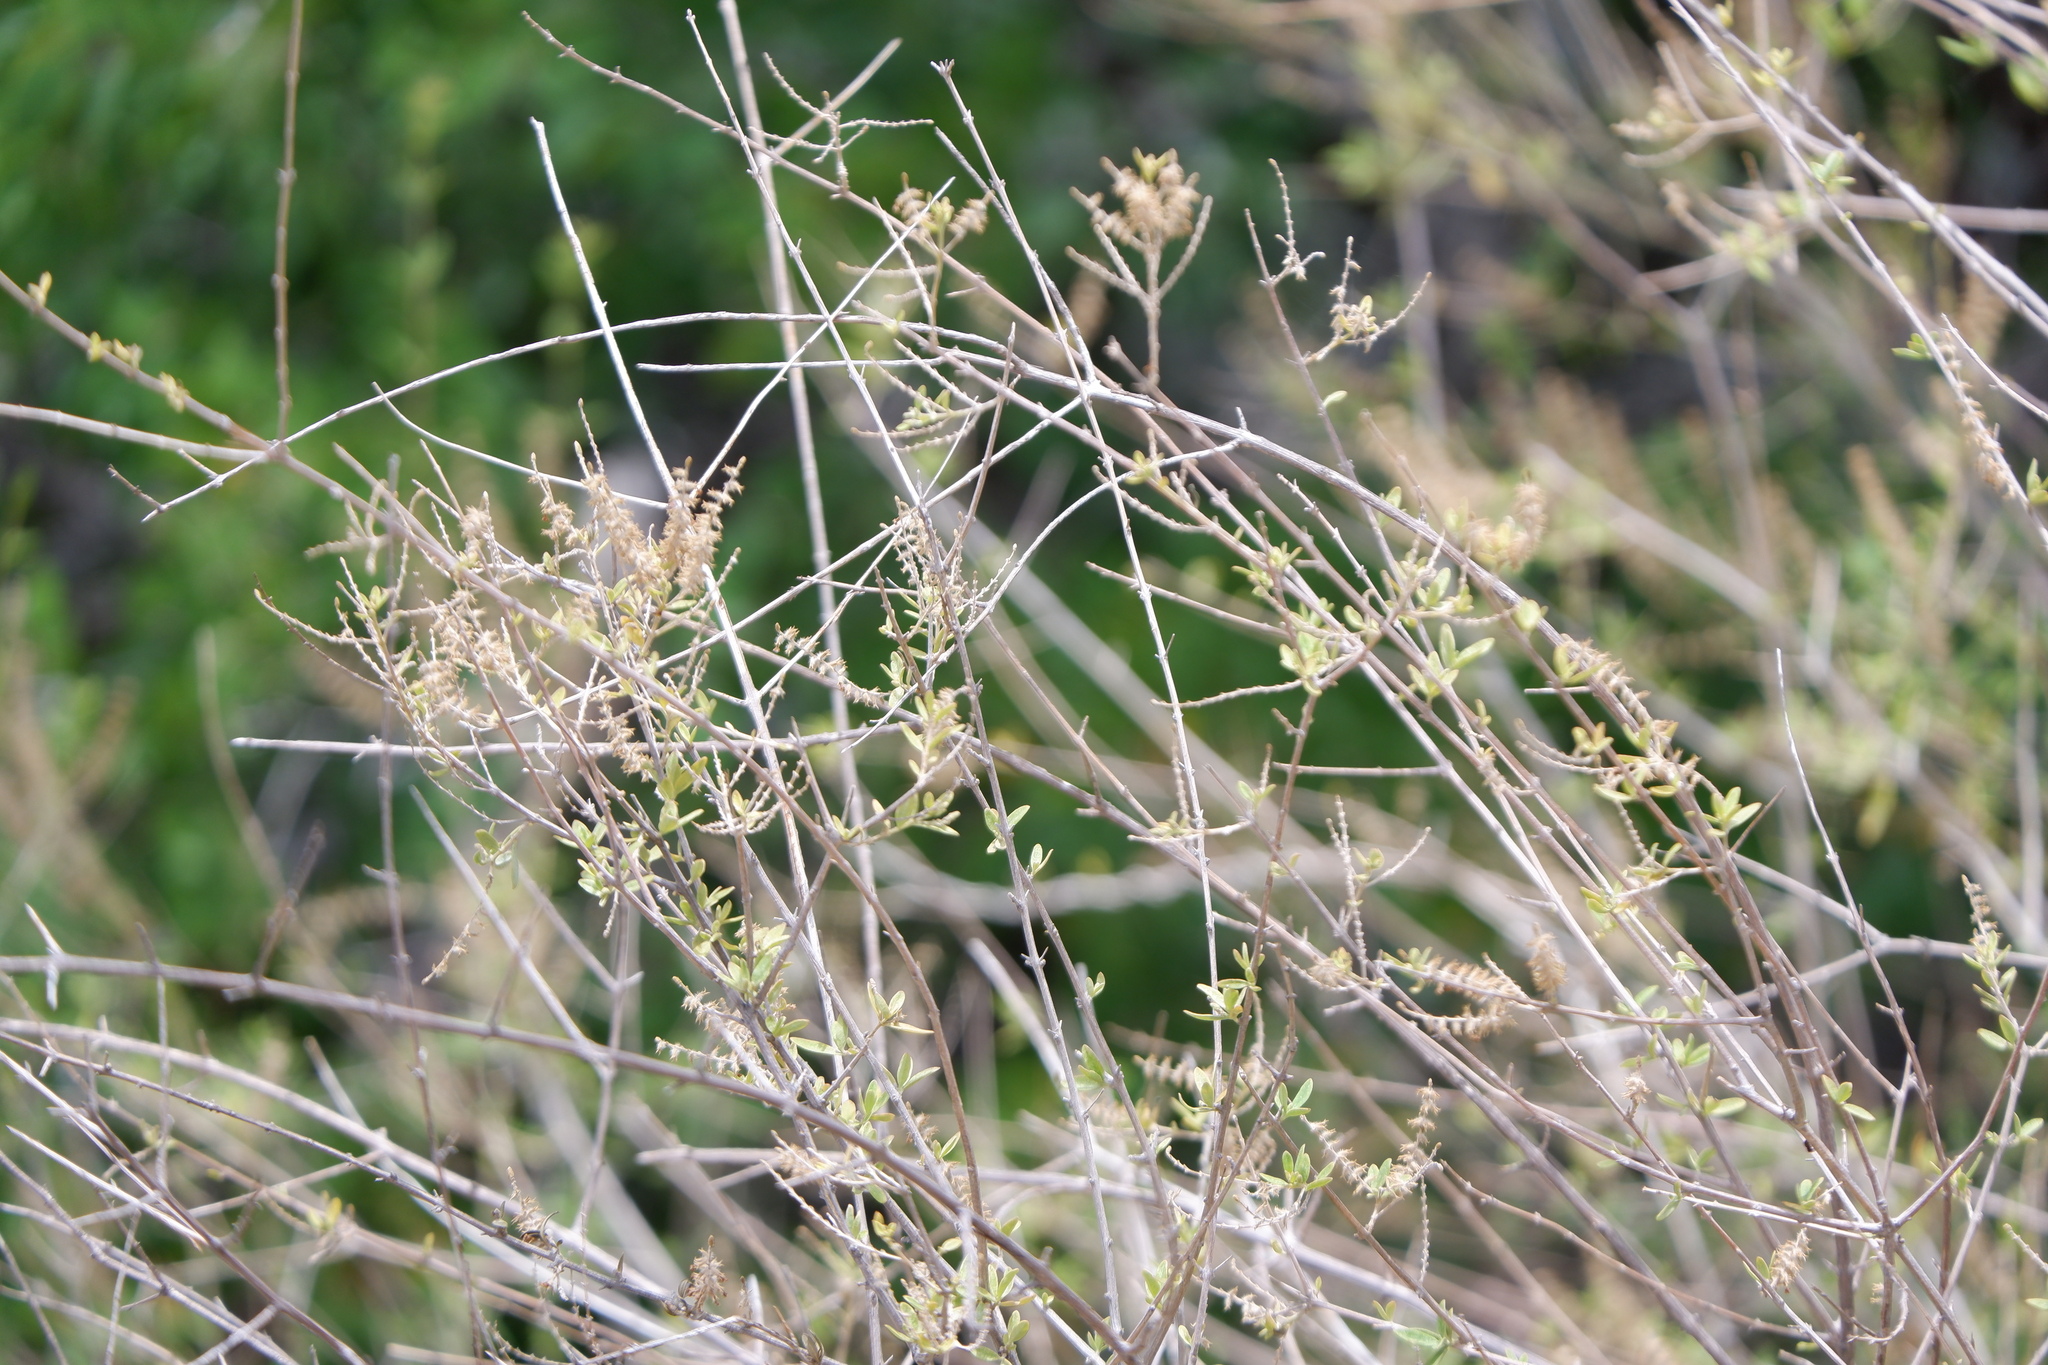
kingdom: Plantae
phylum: Tracheophyta
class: Magnoliopsida
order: Lamiales
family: Verbenaceae
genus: Aloysia
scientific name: Aloysia gratissima
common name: Common bee-brush
